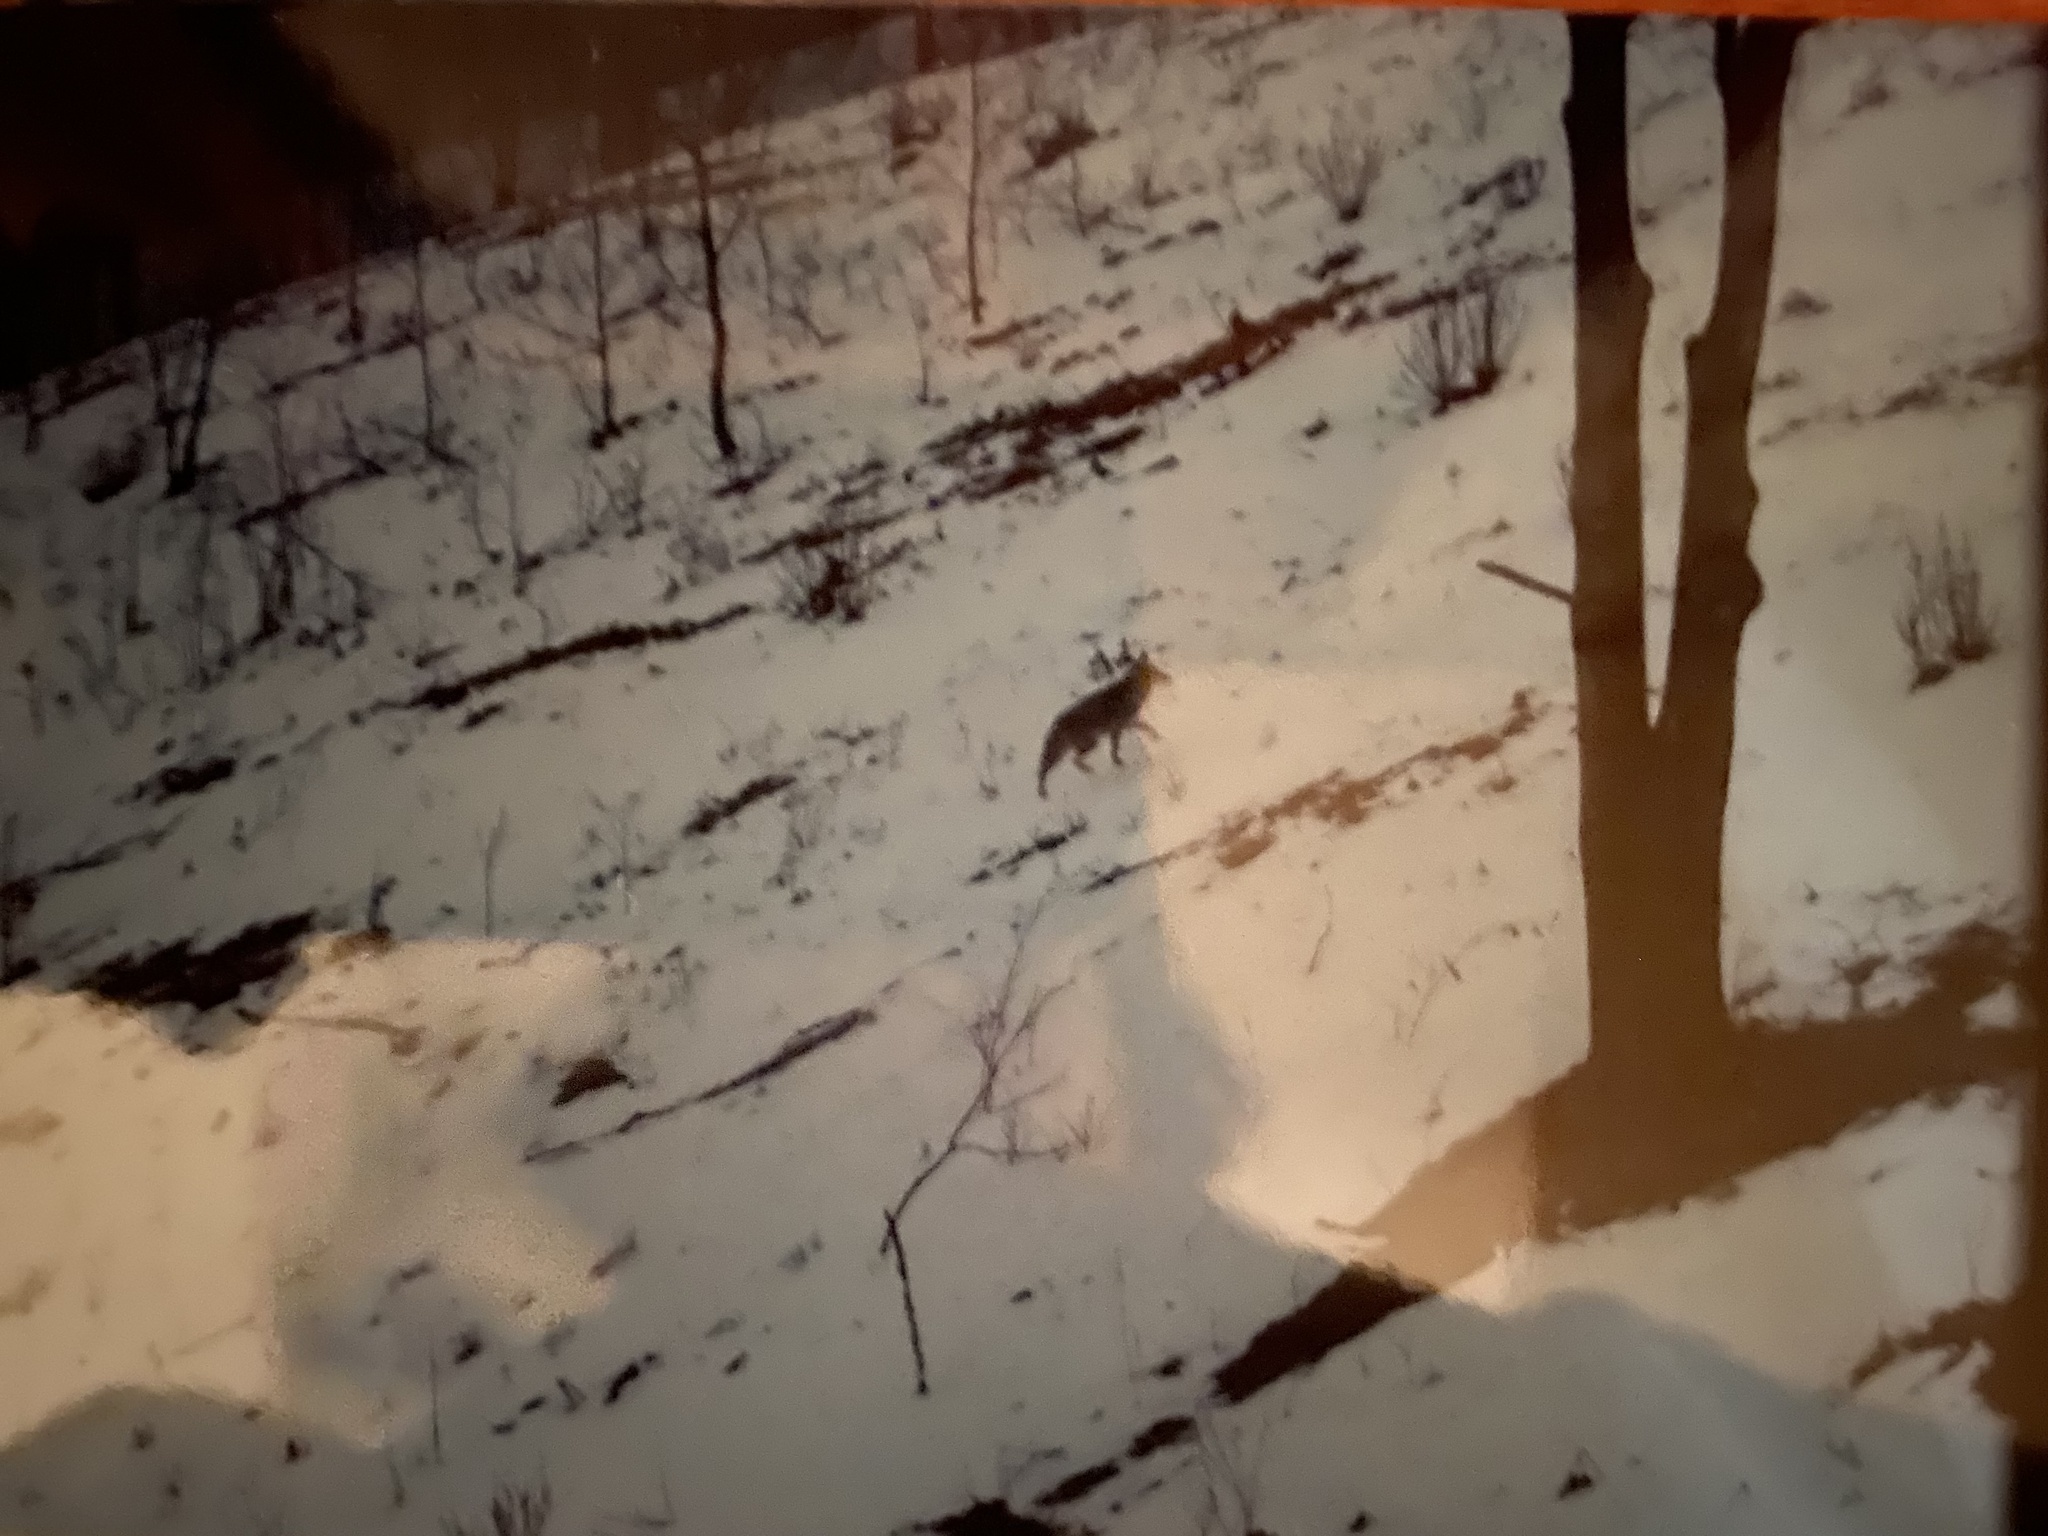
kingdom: Animalia
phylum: Chordata
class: Mammalia
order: Carnivora
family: Canidae
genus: Canis
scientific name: Canis latrans
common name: Coyote
